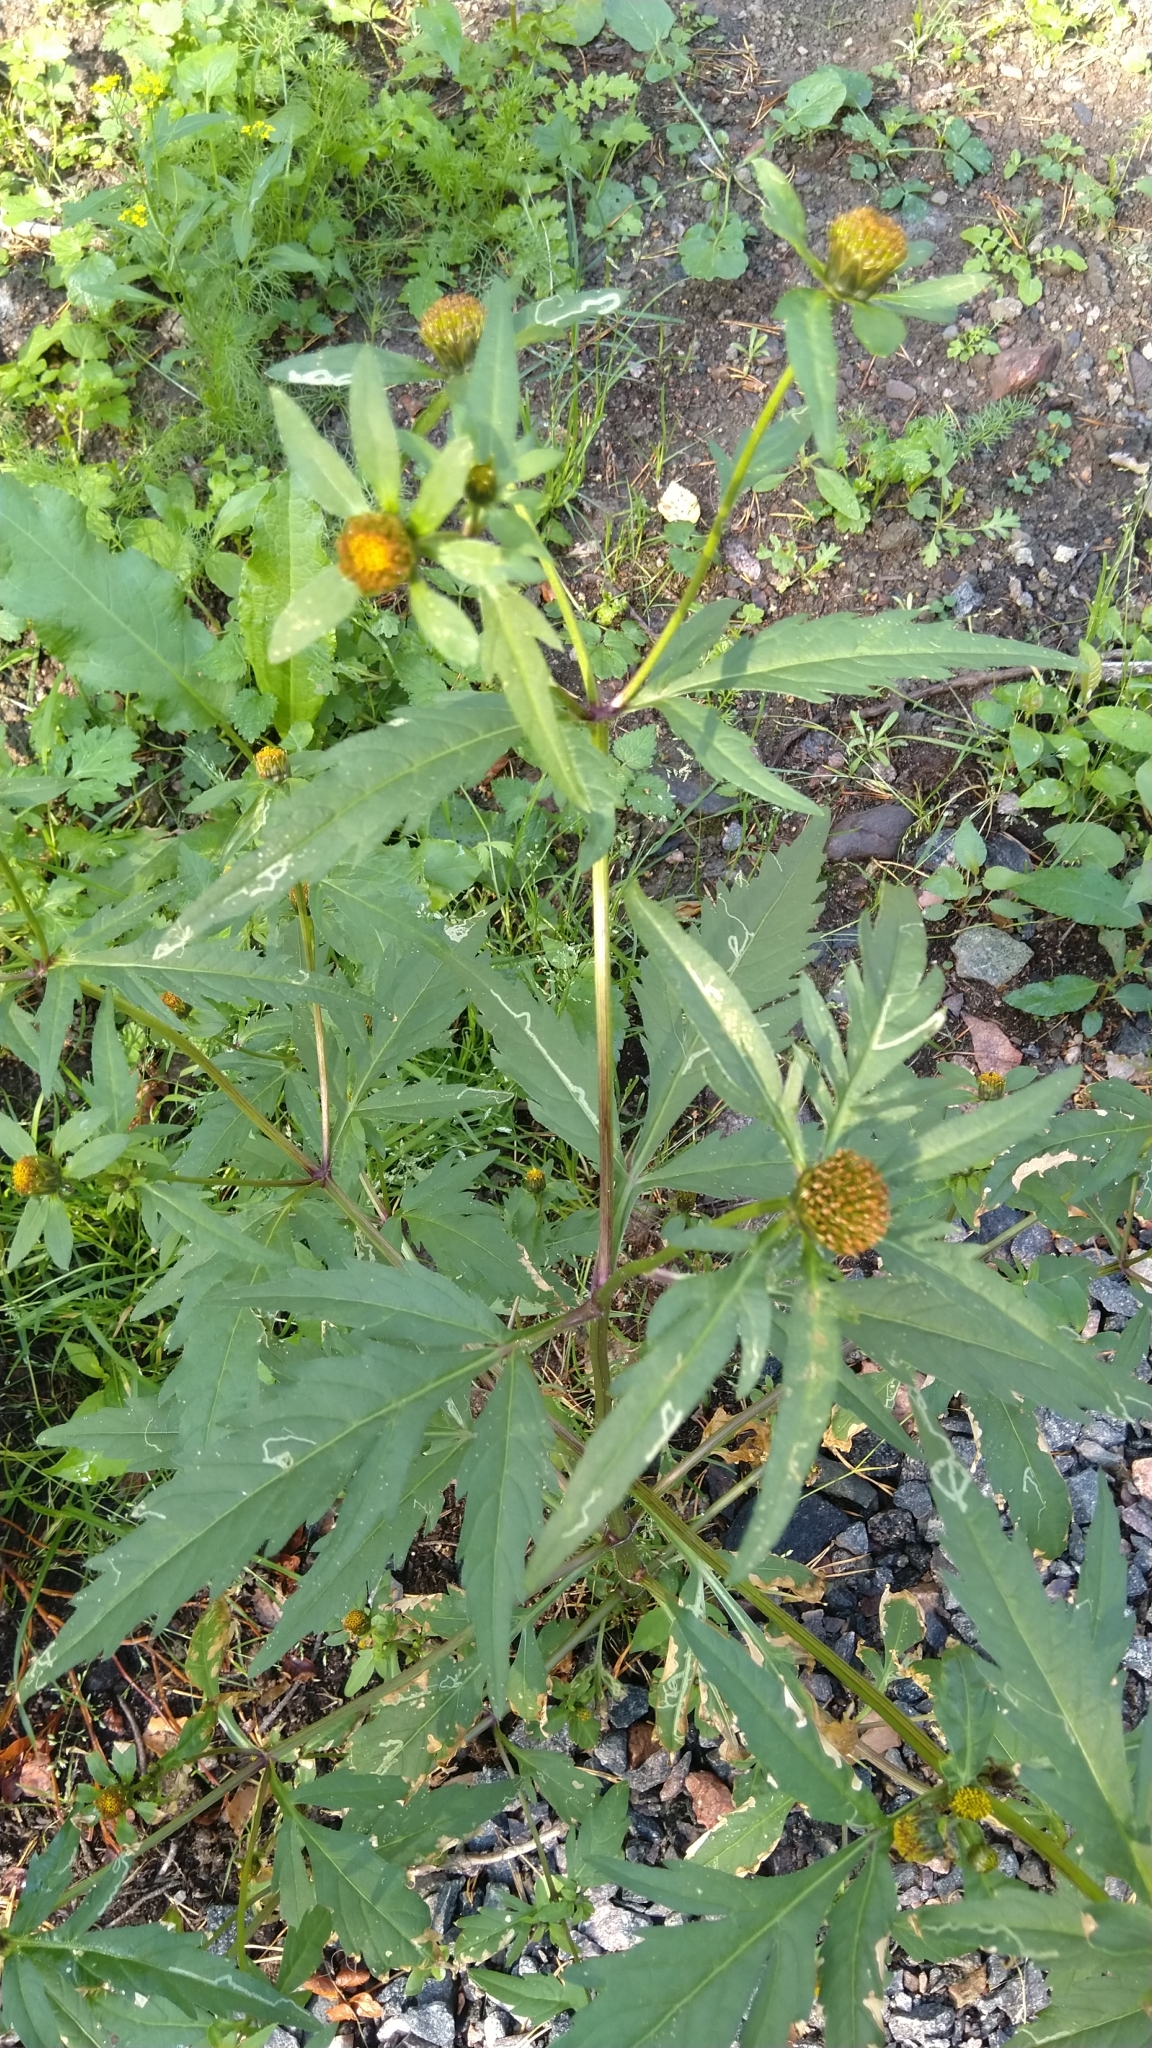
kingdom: Plantae
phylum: Tracheophyta
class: Magnoliopsida
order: Asterales
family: Asteraceae
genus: Bidens
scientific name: Bidens tripartita
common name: Trifid bur-marigold
